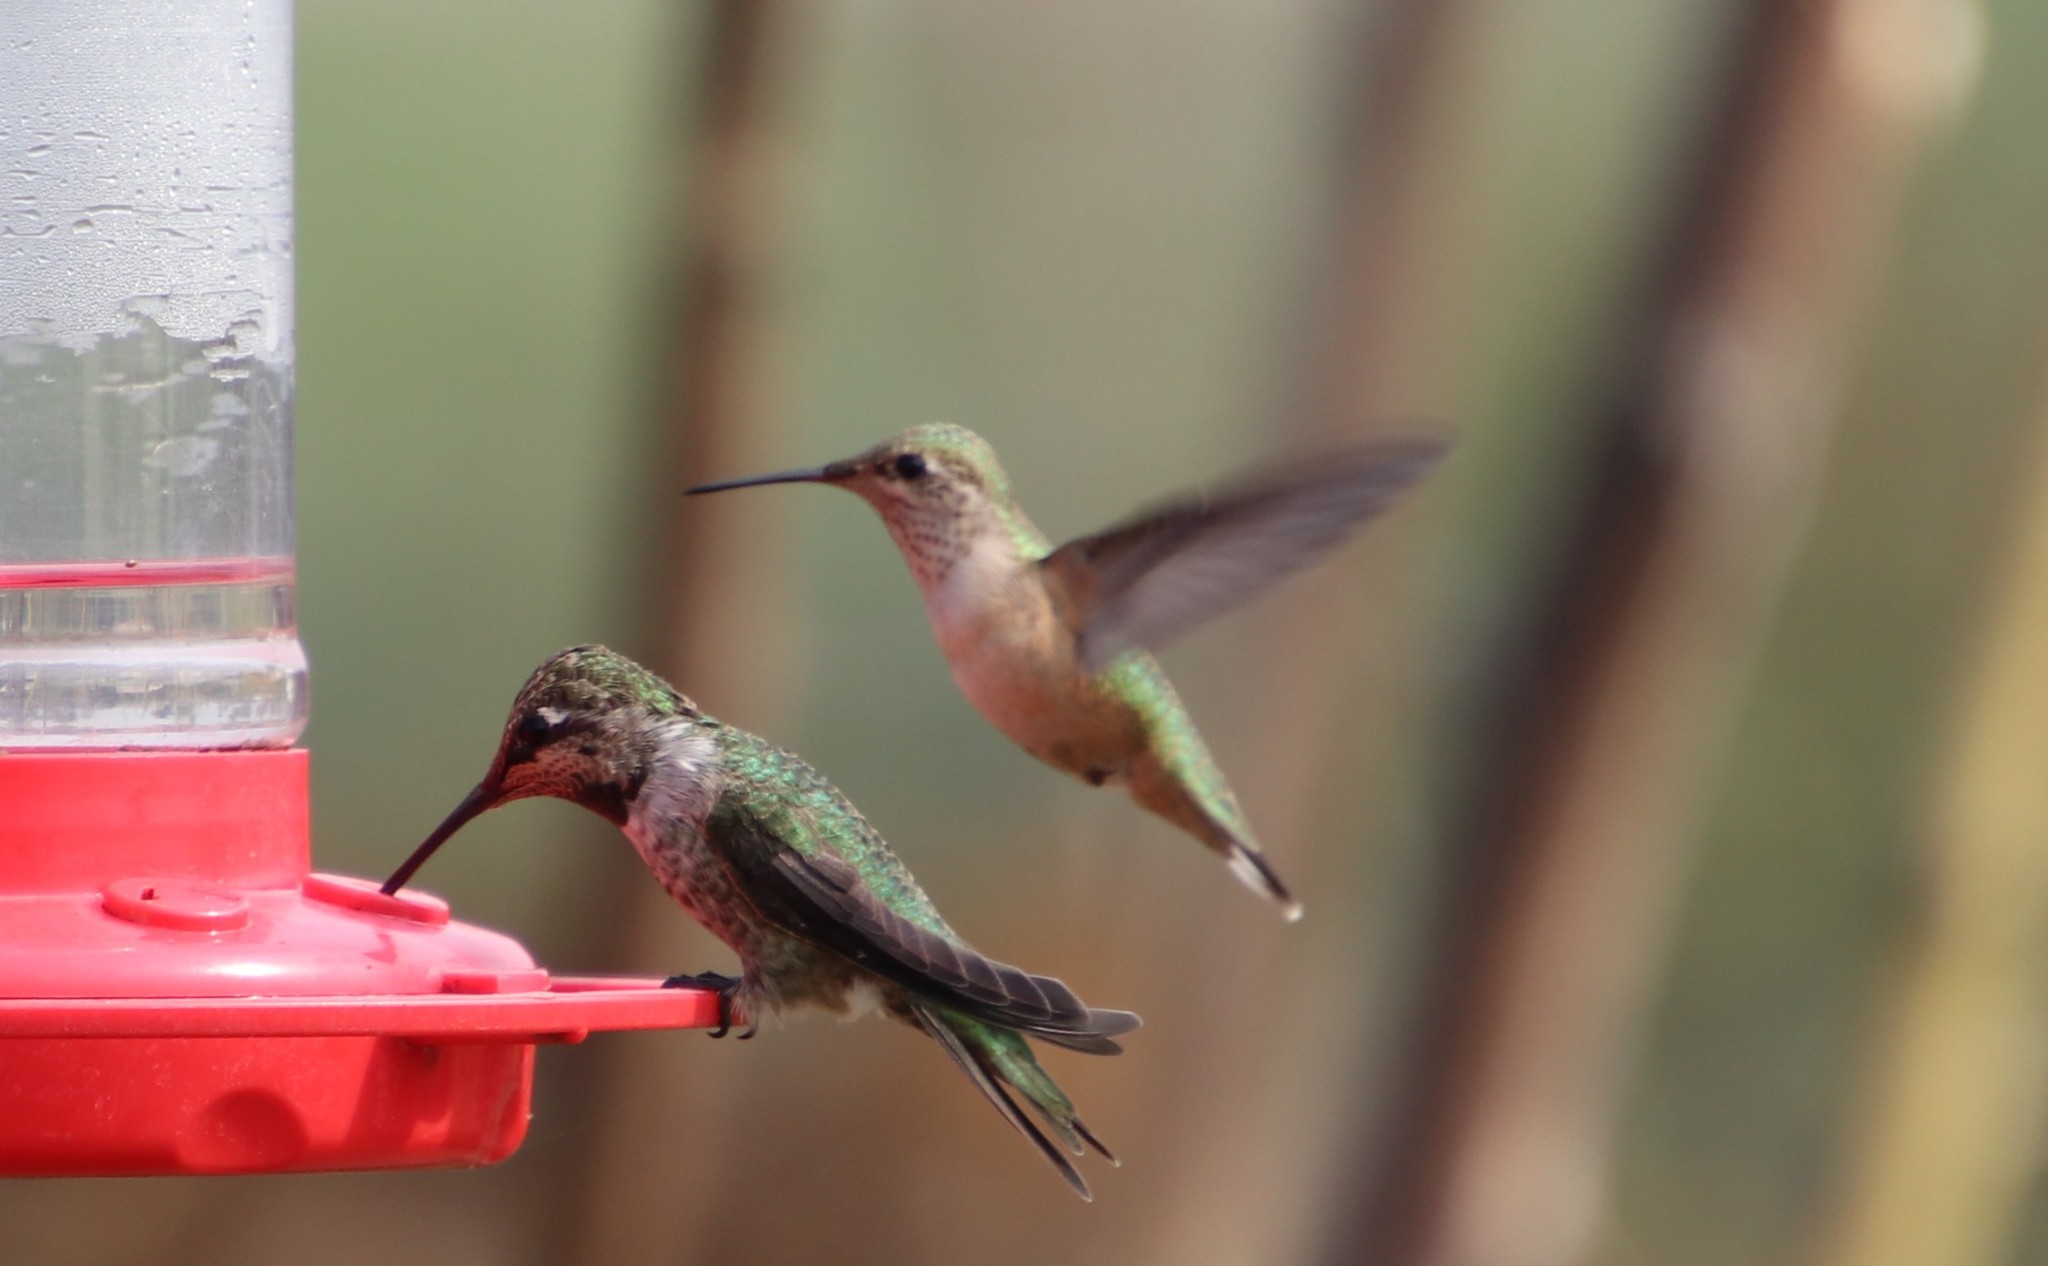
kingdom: Animalia
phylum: Chordata
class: Aves
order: Apodiformes
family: Trochilidae
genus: Selasphorus
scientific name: Selasphorus calliope
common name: Calliope hummingbird
